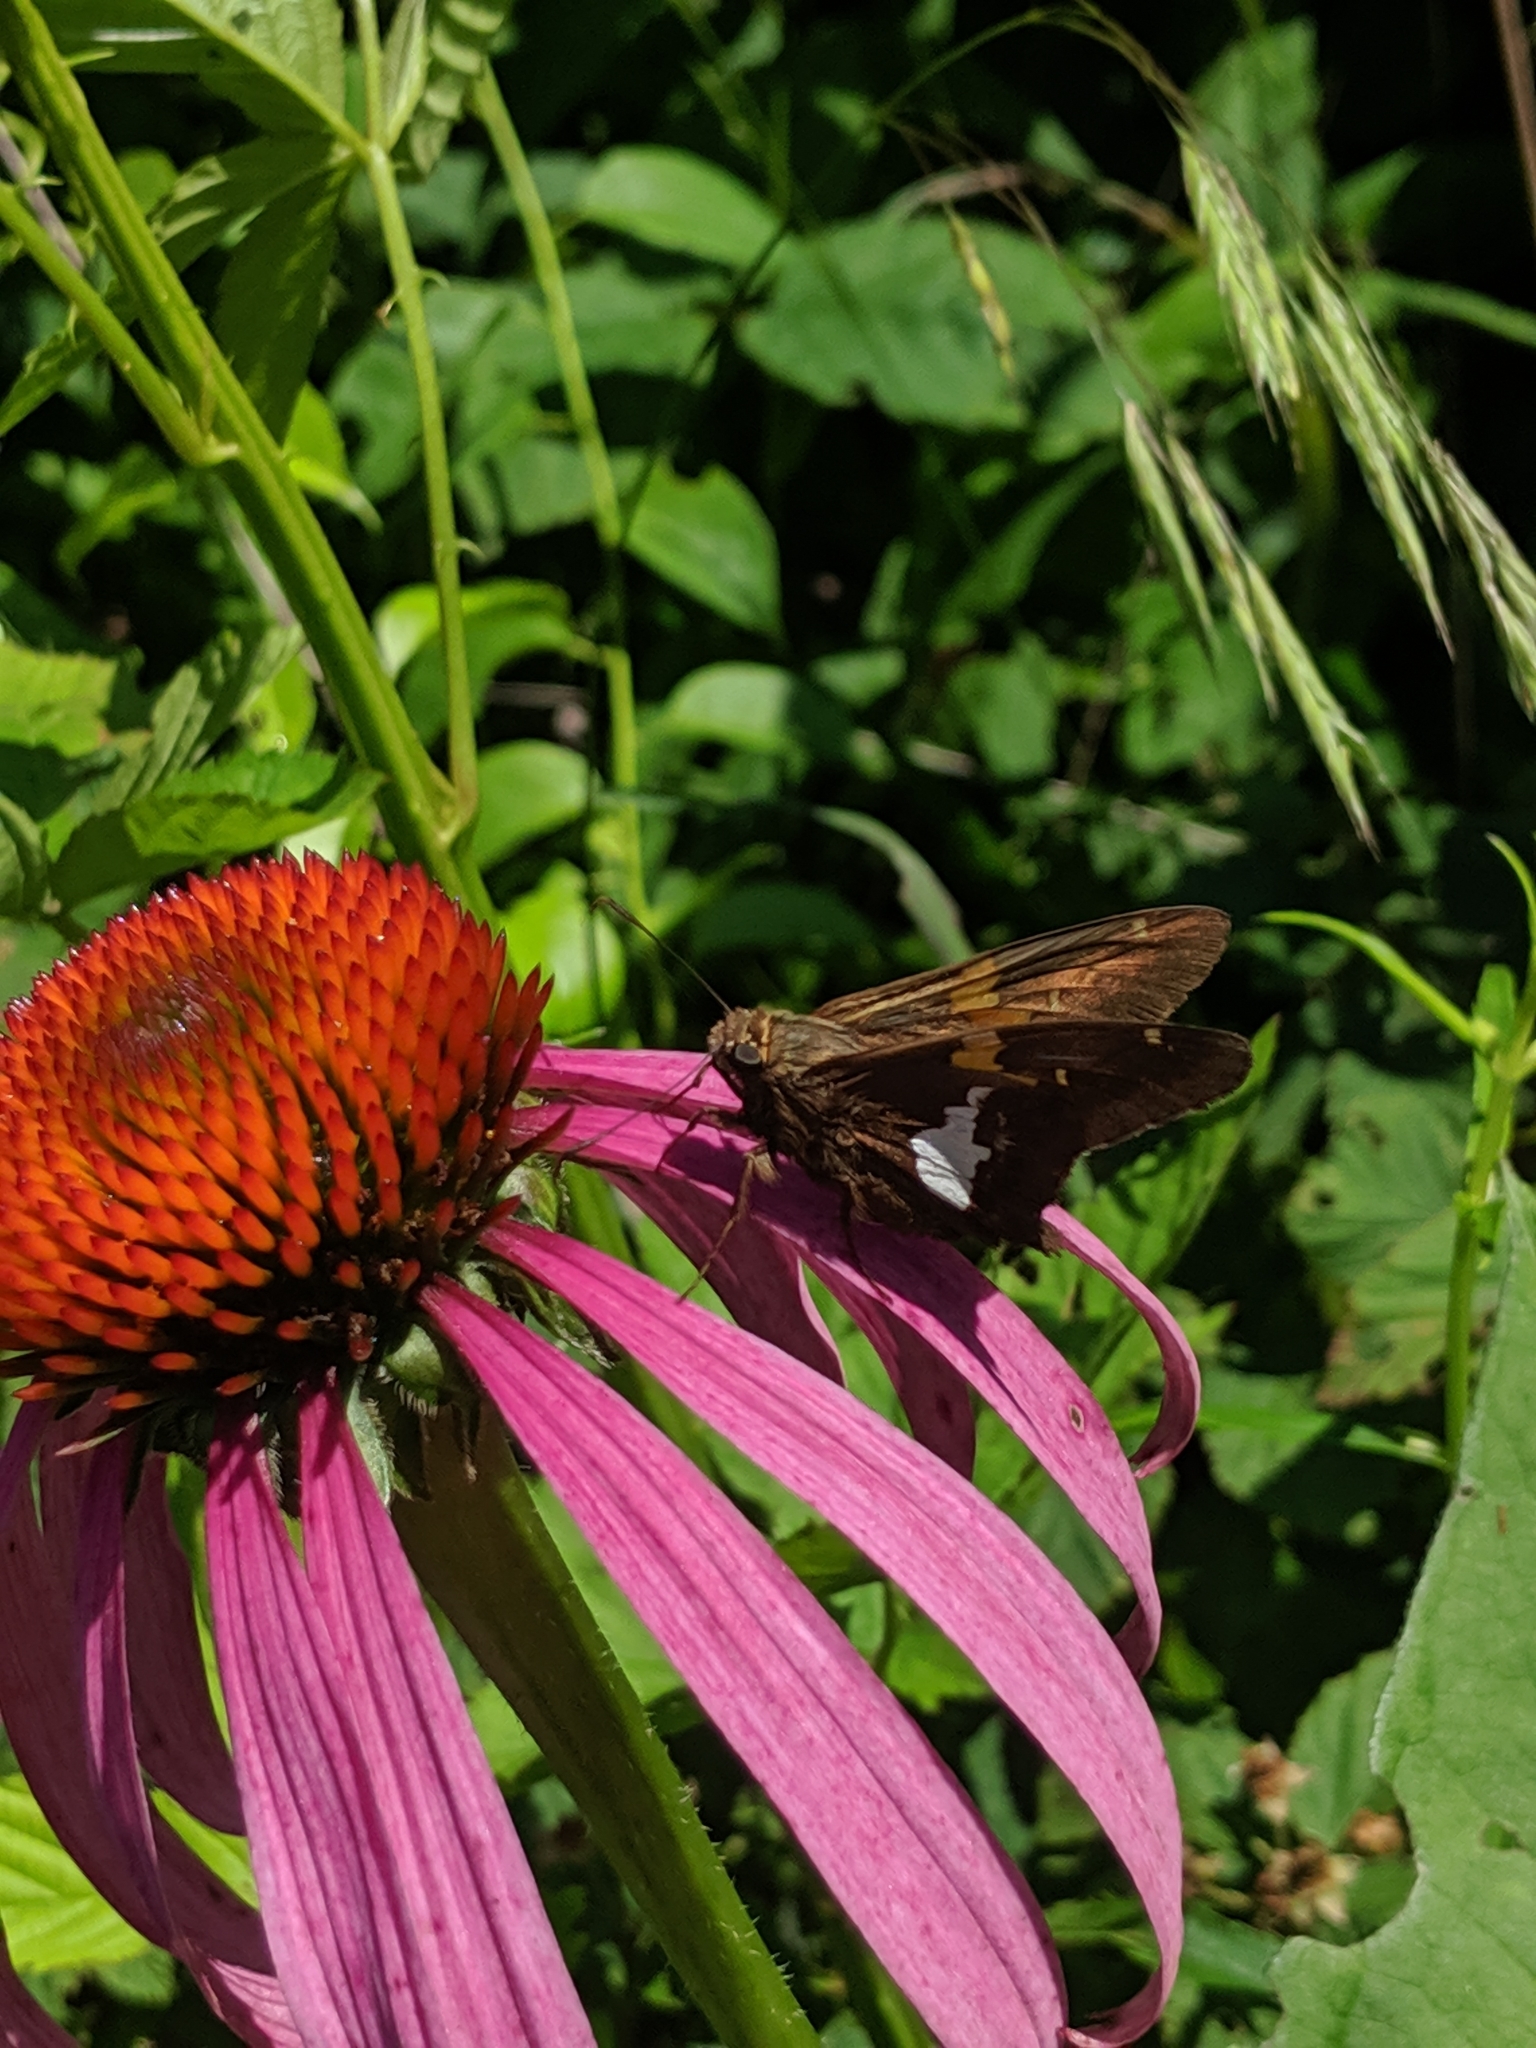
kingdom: Animalia
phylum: Arthropoda
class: Insecta
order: Lepidoptera
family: Hesperiidae
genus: Epargyreus
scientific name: Epargyreus clarus
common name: Silver-spotted skipper
